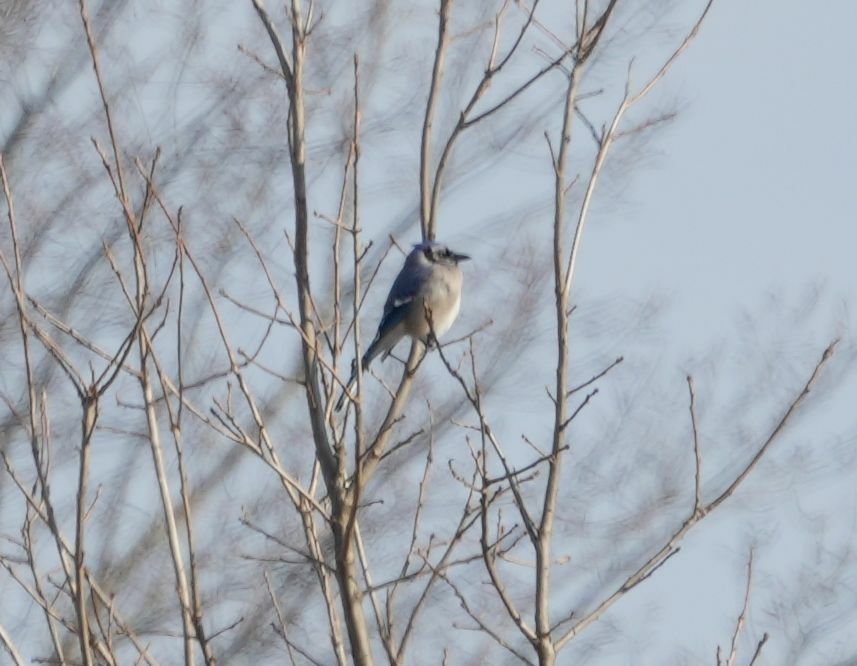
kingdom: Animalia
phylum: Chordata
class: Aves
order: Passeriformes
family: Corvidae
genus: Cyanocitta
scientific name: Cyanocitta cristata
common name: Blue jay
